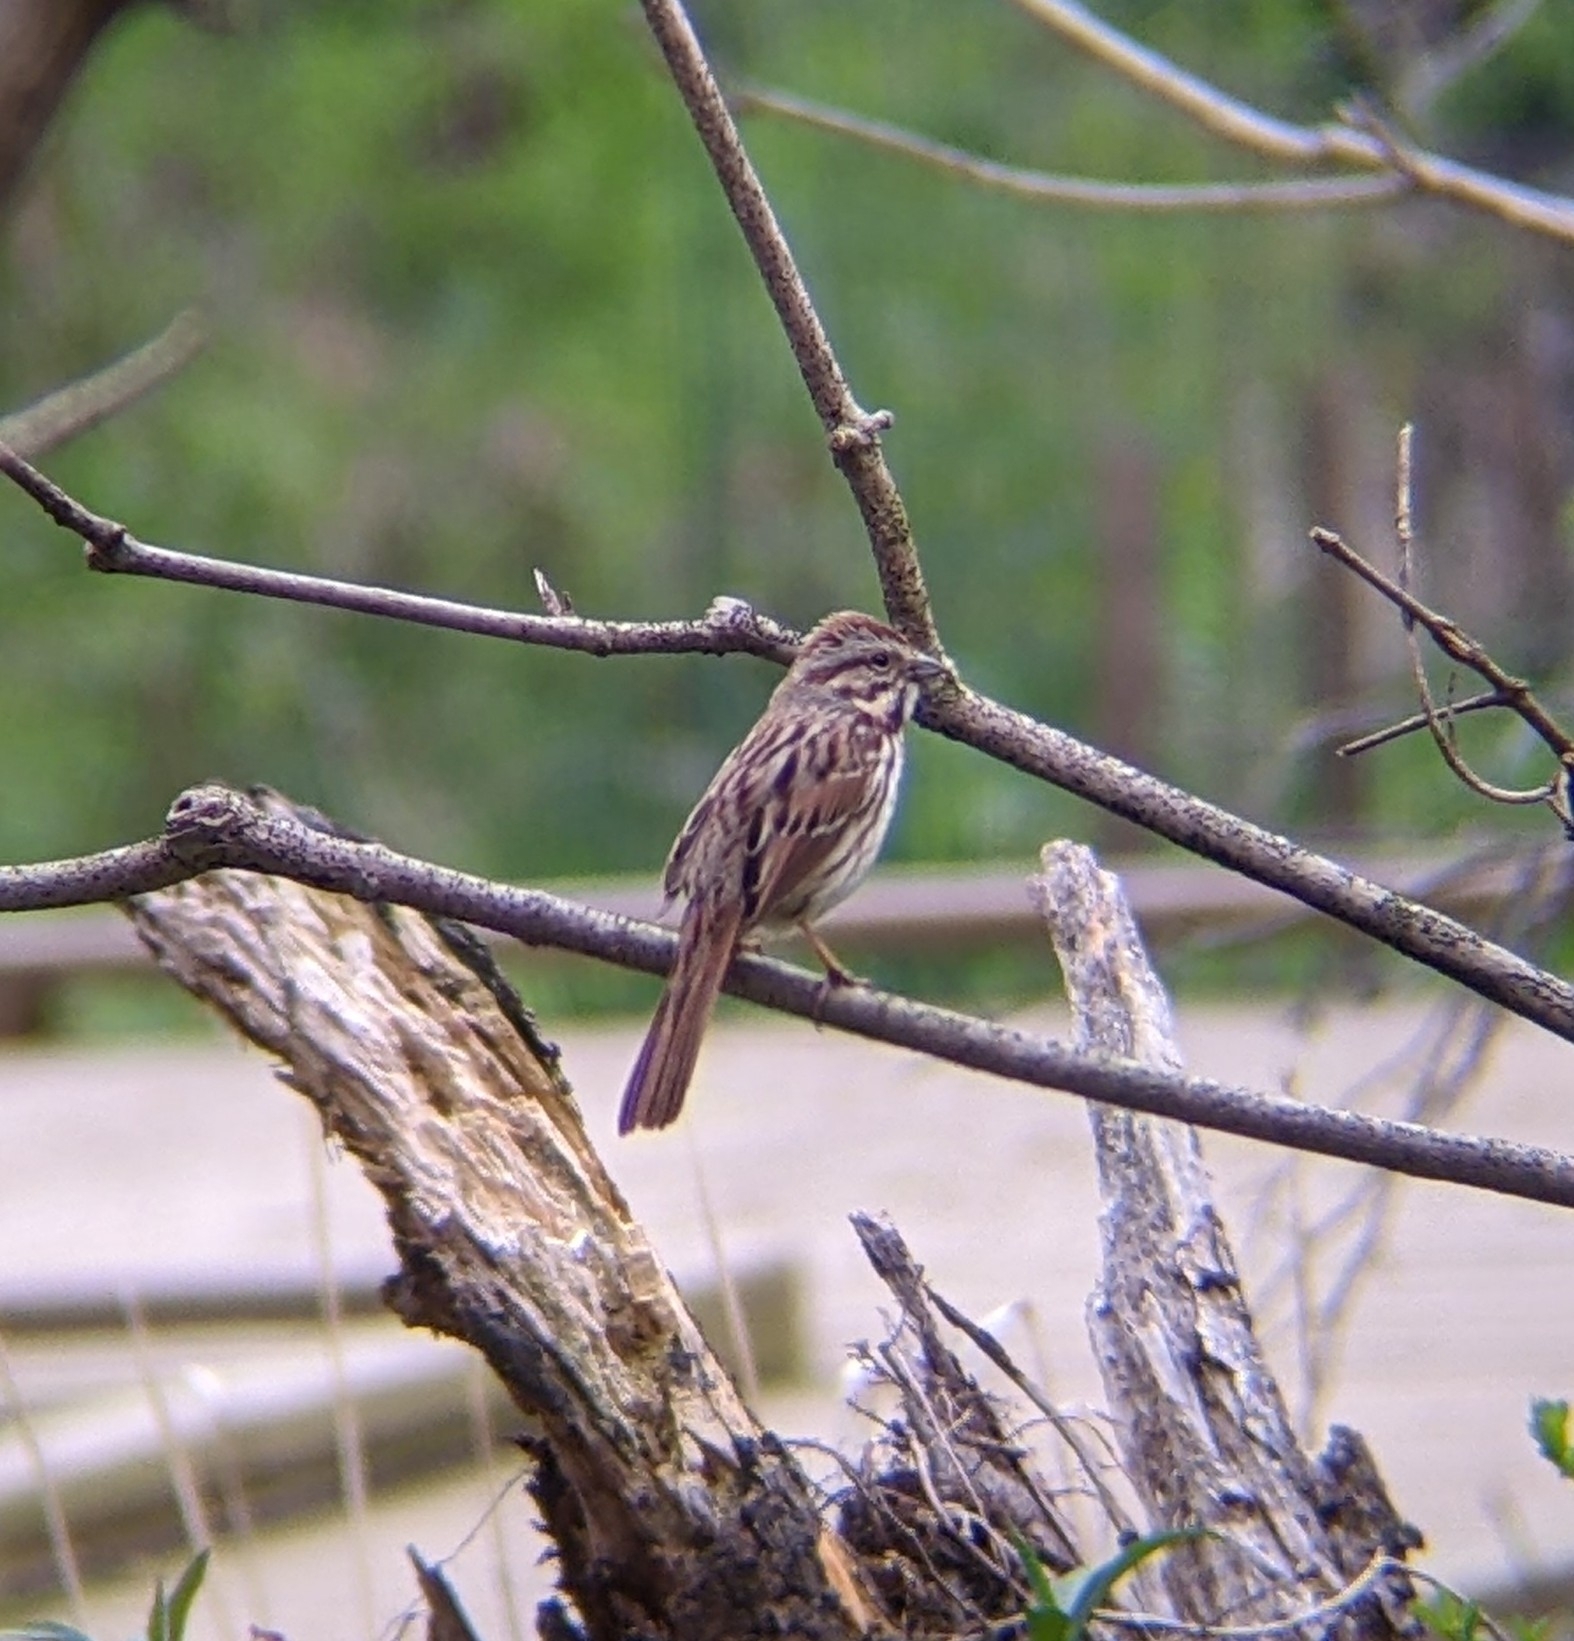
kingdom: Animalia
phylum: Chordata
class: Aves
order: Passeriformes
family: Passerellidae
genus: Melospiza
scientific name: Melospiza melodia
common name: Song sparrow
